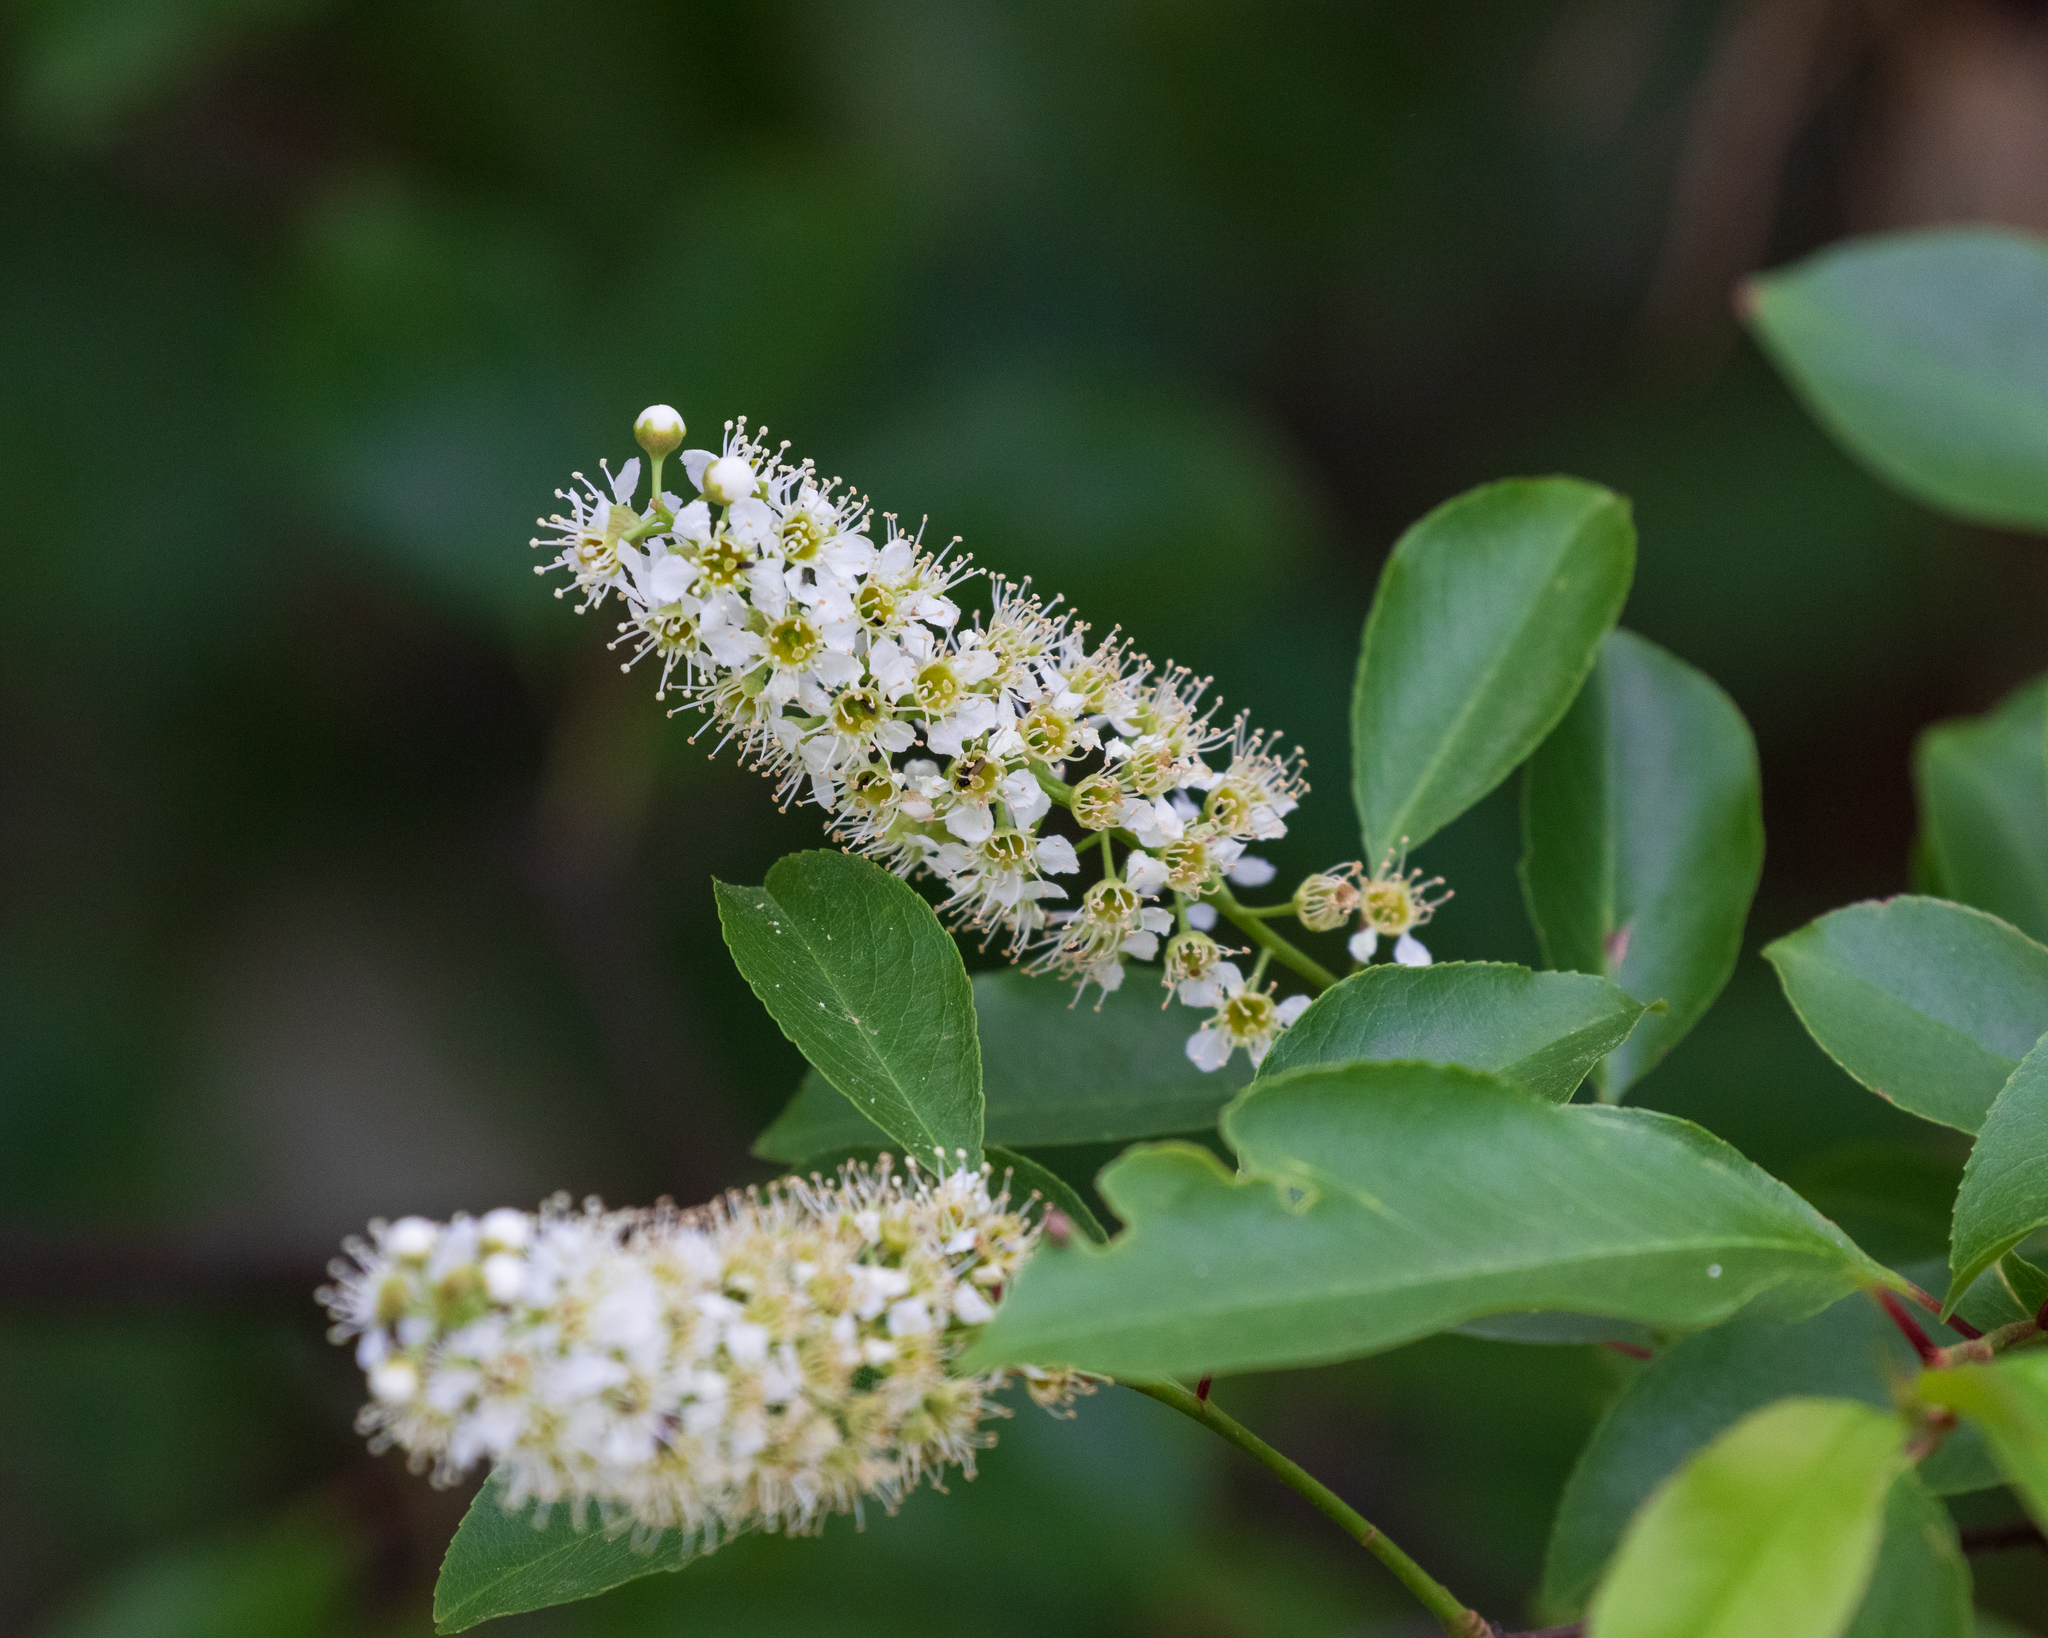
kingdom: Plantae
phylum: Tracheophyta
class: Magnoliopsida
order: Rosales
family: Rosaceae
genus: Prunus
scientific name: Prunus serotina
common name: Black cherry
